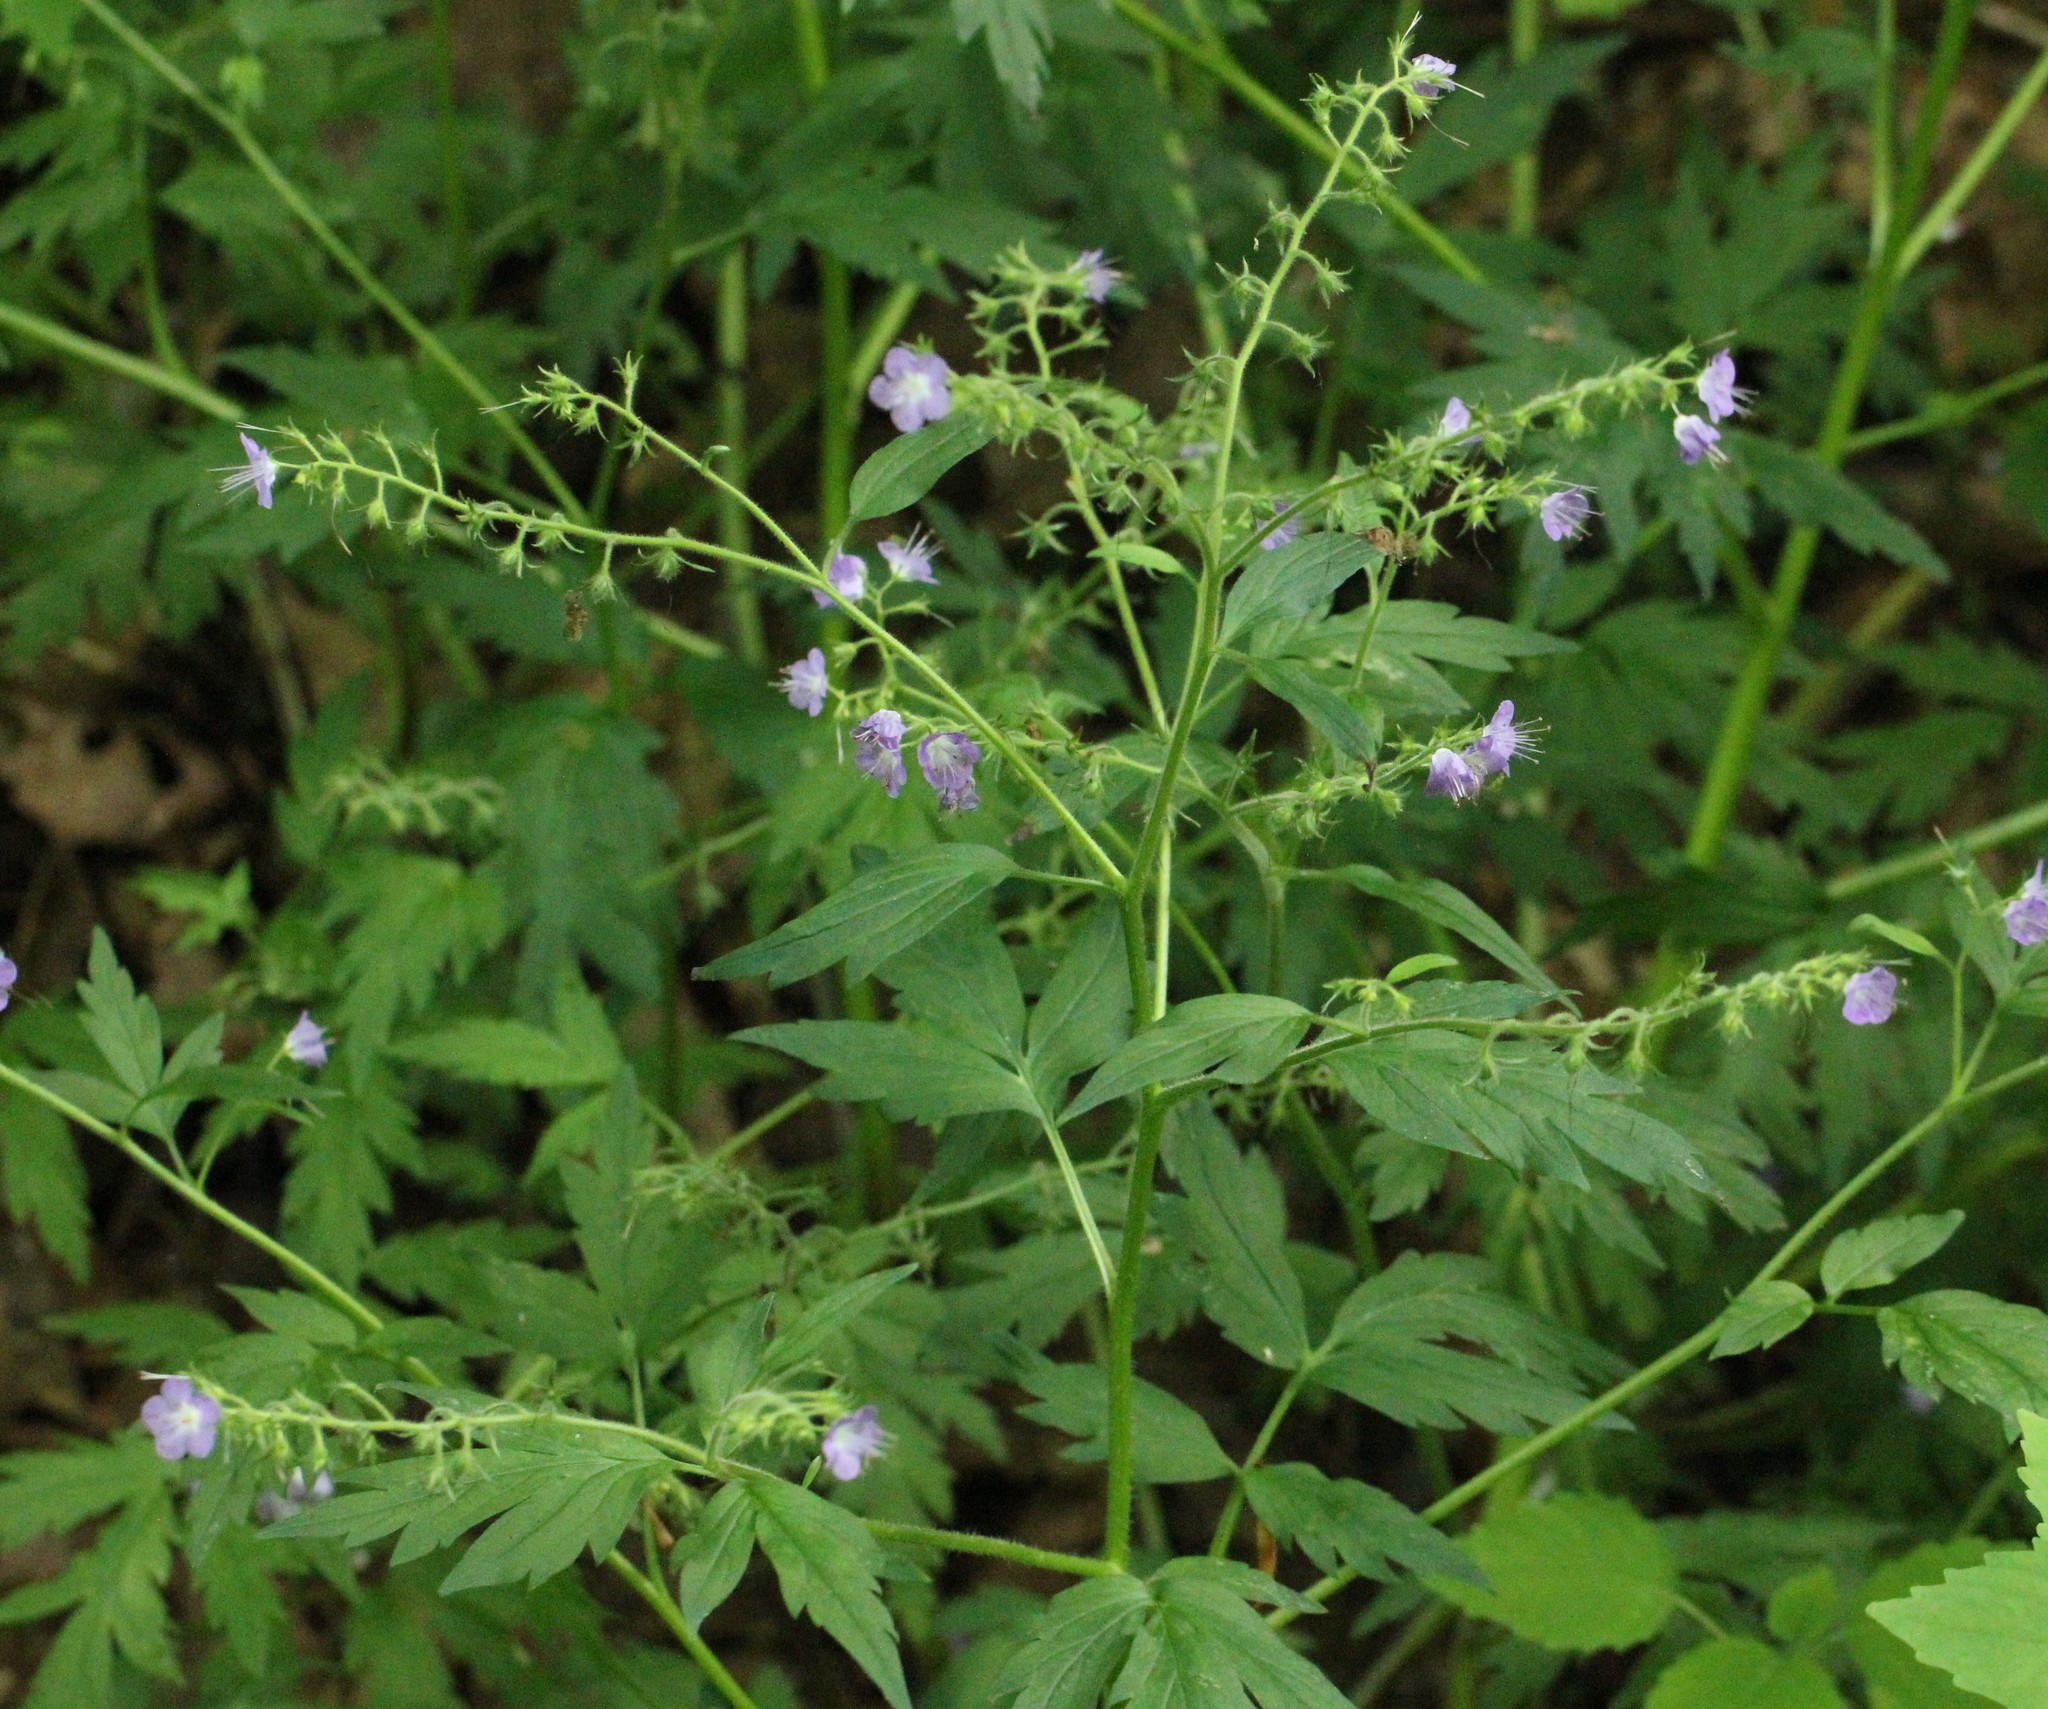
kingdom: Plantae
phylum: Tracheophyta
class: Magnoliopsida
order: Boraginales
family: Hydrophyllaceae
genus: Phacelia
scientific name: Phacelia bipinnatifida
